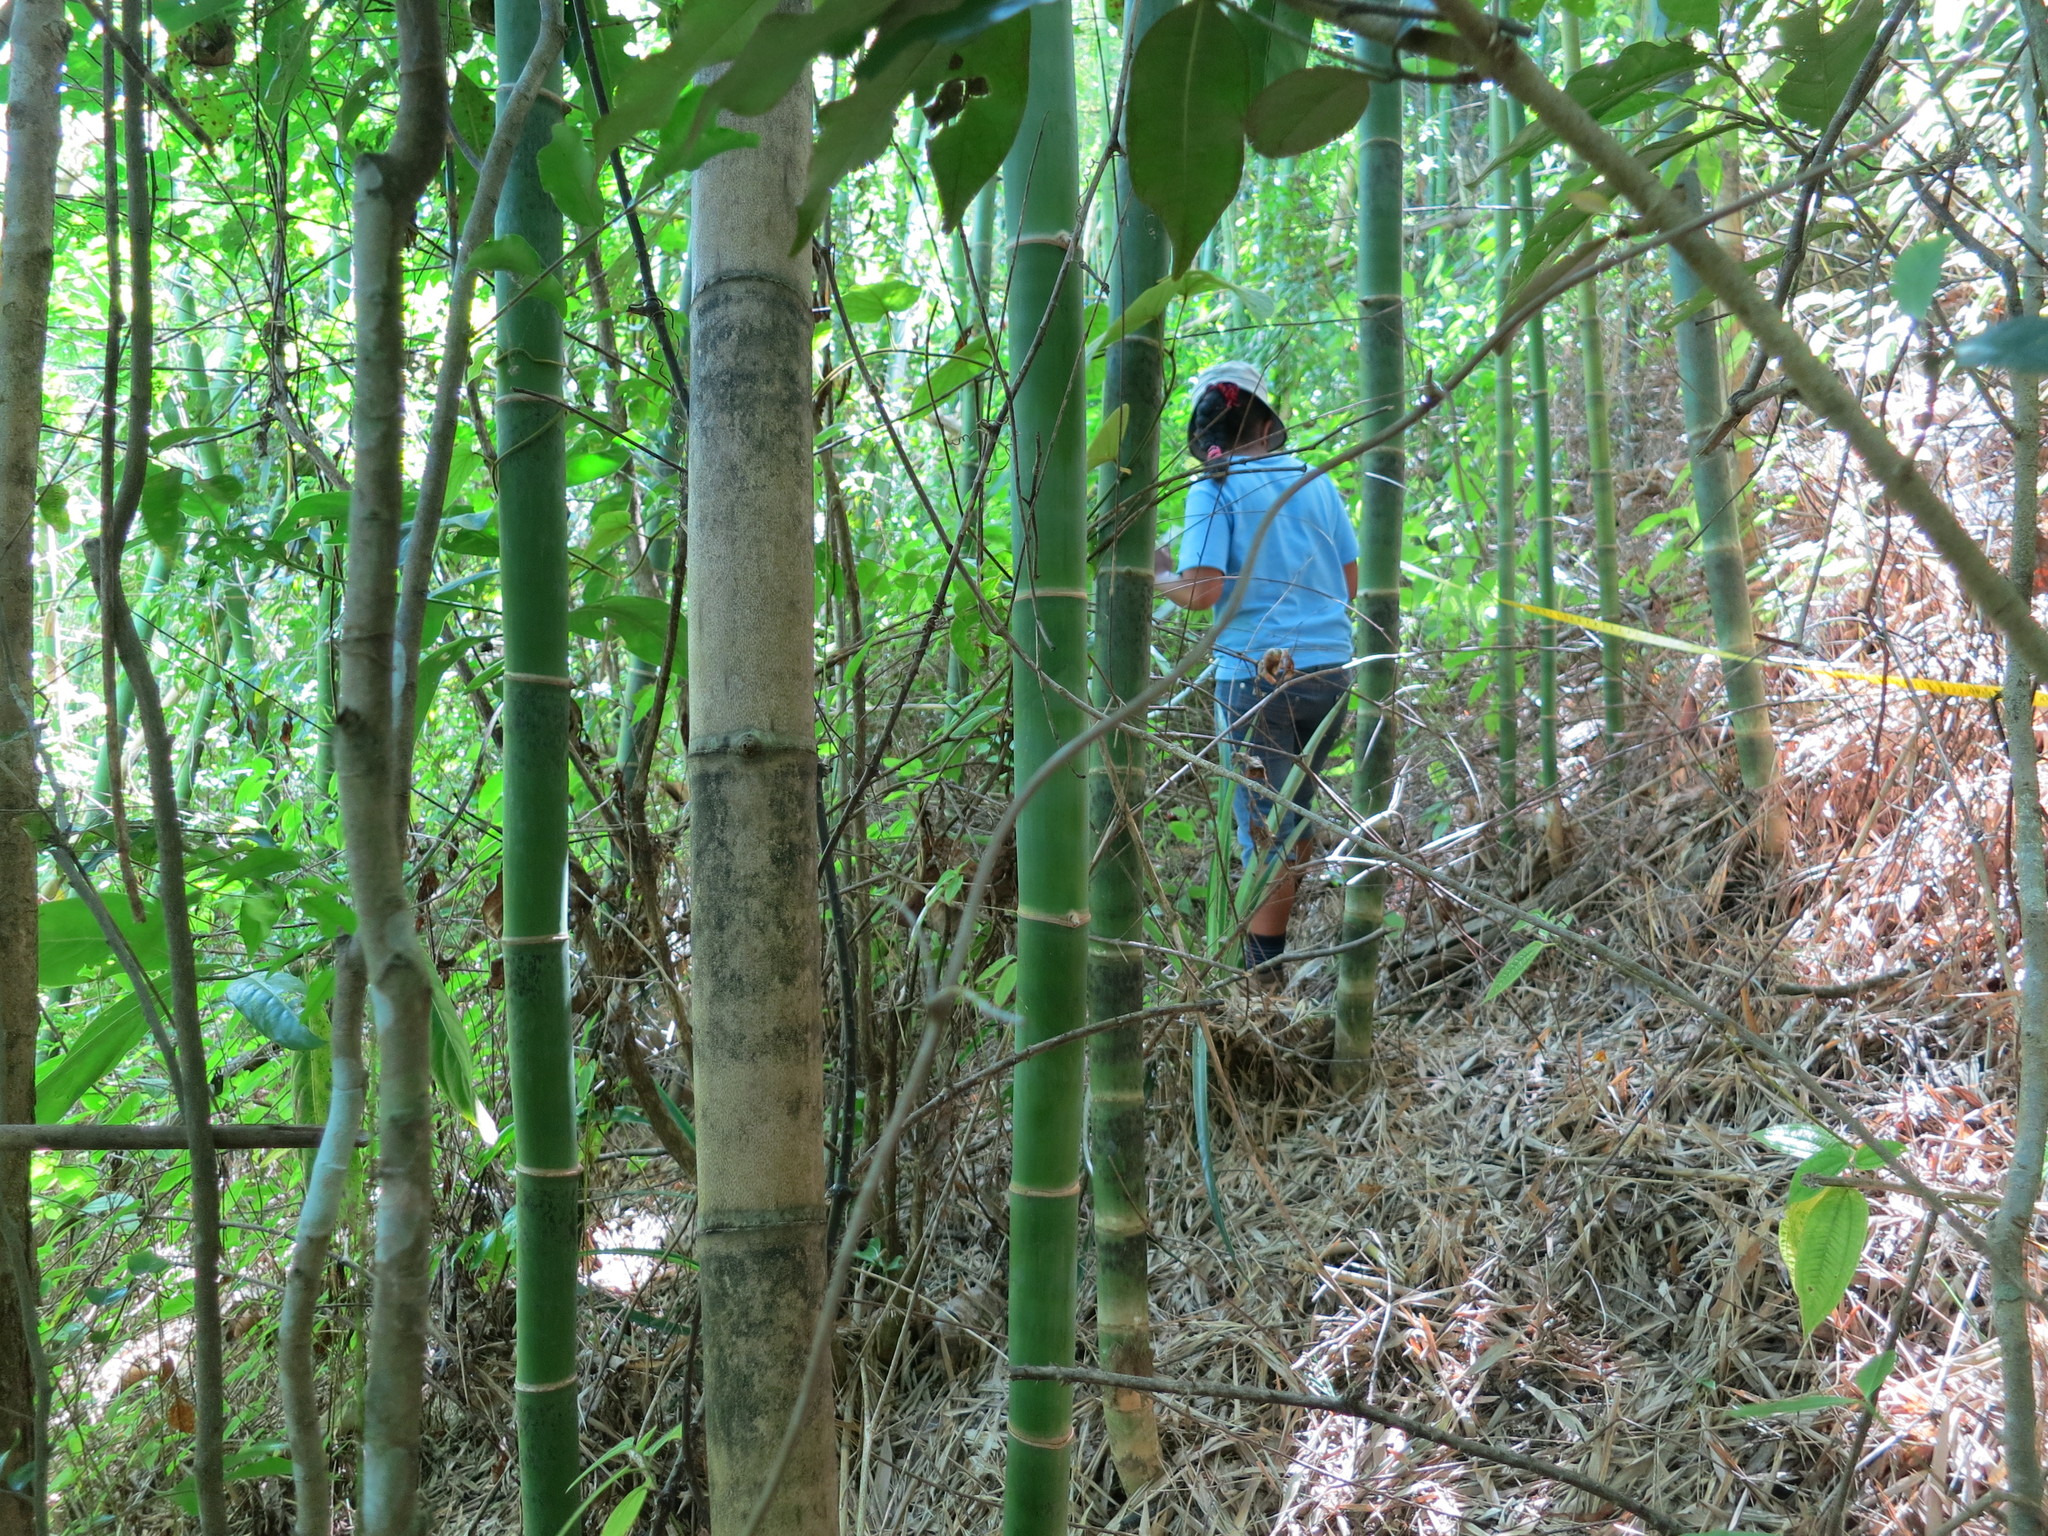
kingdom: Plantae
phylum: Tracheophyta
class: Liliopsida
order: Poales
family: Poaceae
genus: Valiha
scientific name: Valiha diffusa
